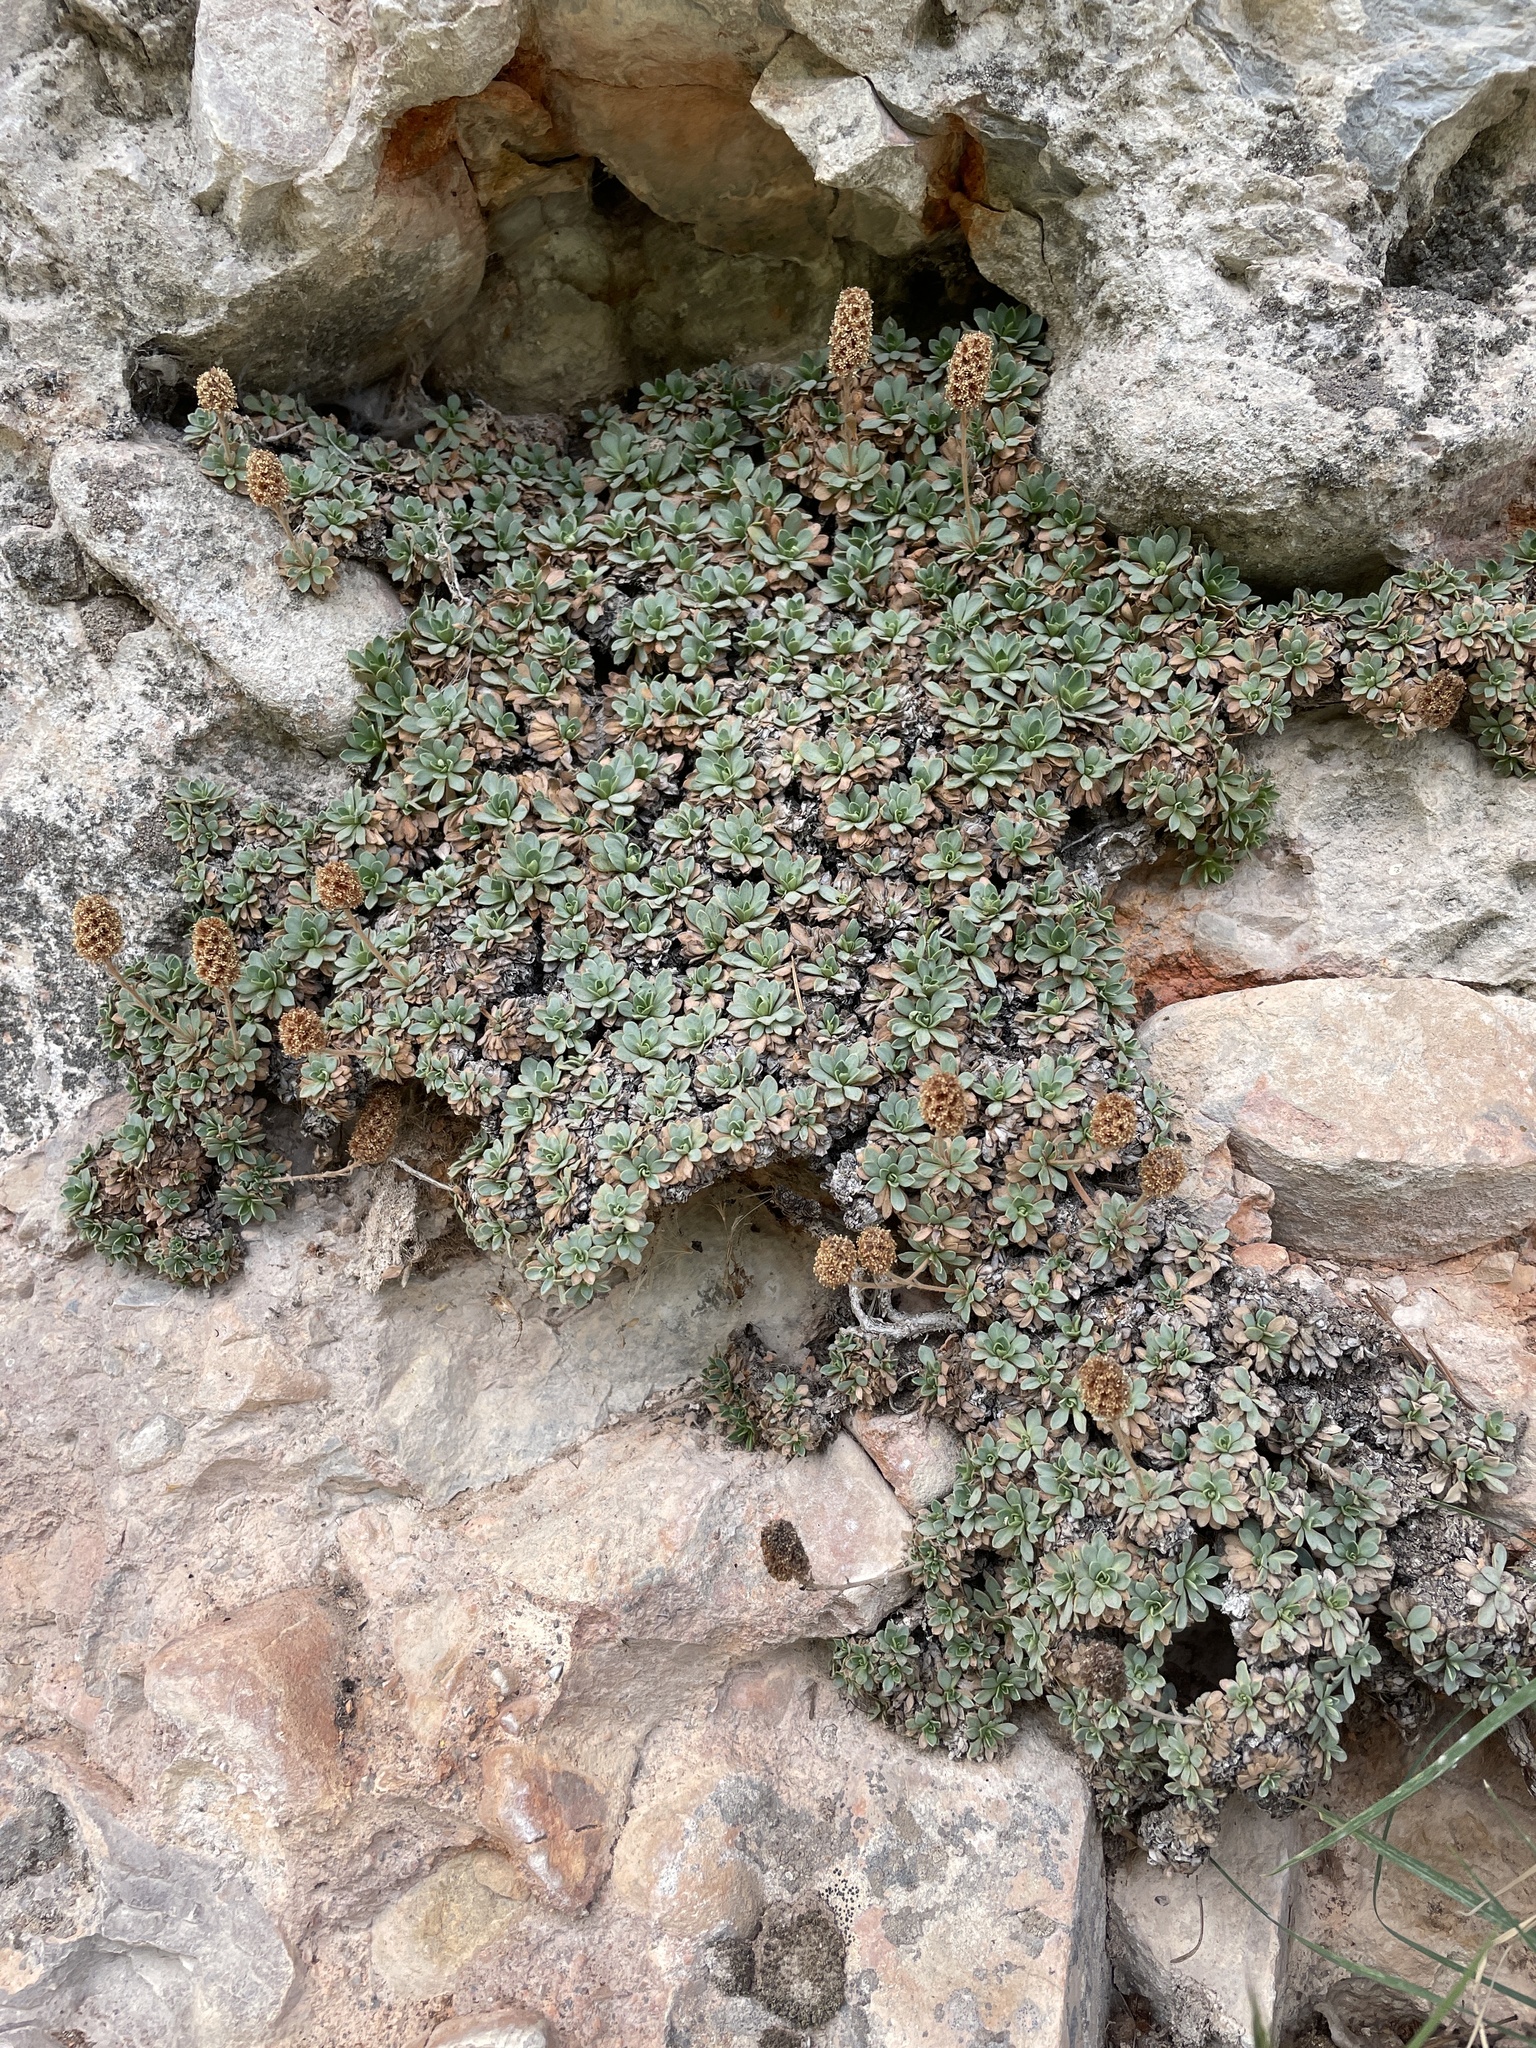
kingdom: Plantae
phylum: Tracheophyta
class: Magnoliopsida
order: Rosales
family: Rosaceae
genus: Petrophytum
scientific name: Petrophytum caespitosum
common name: Mat rockspirea
